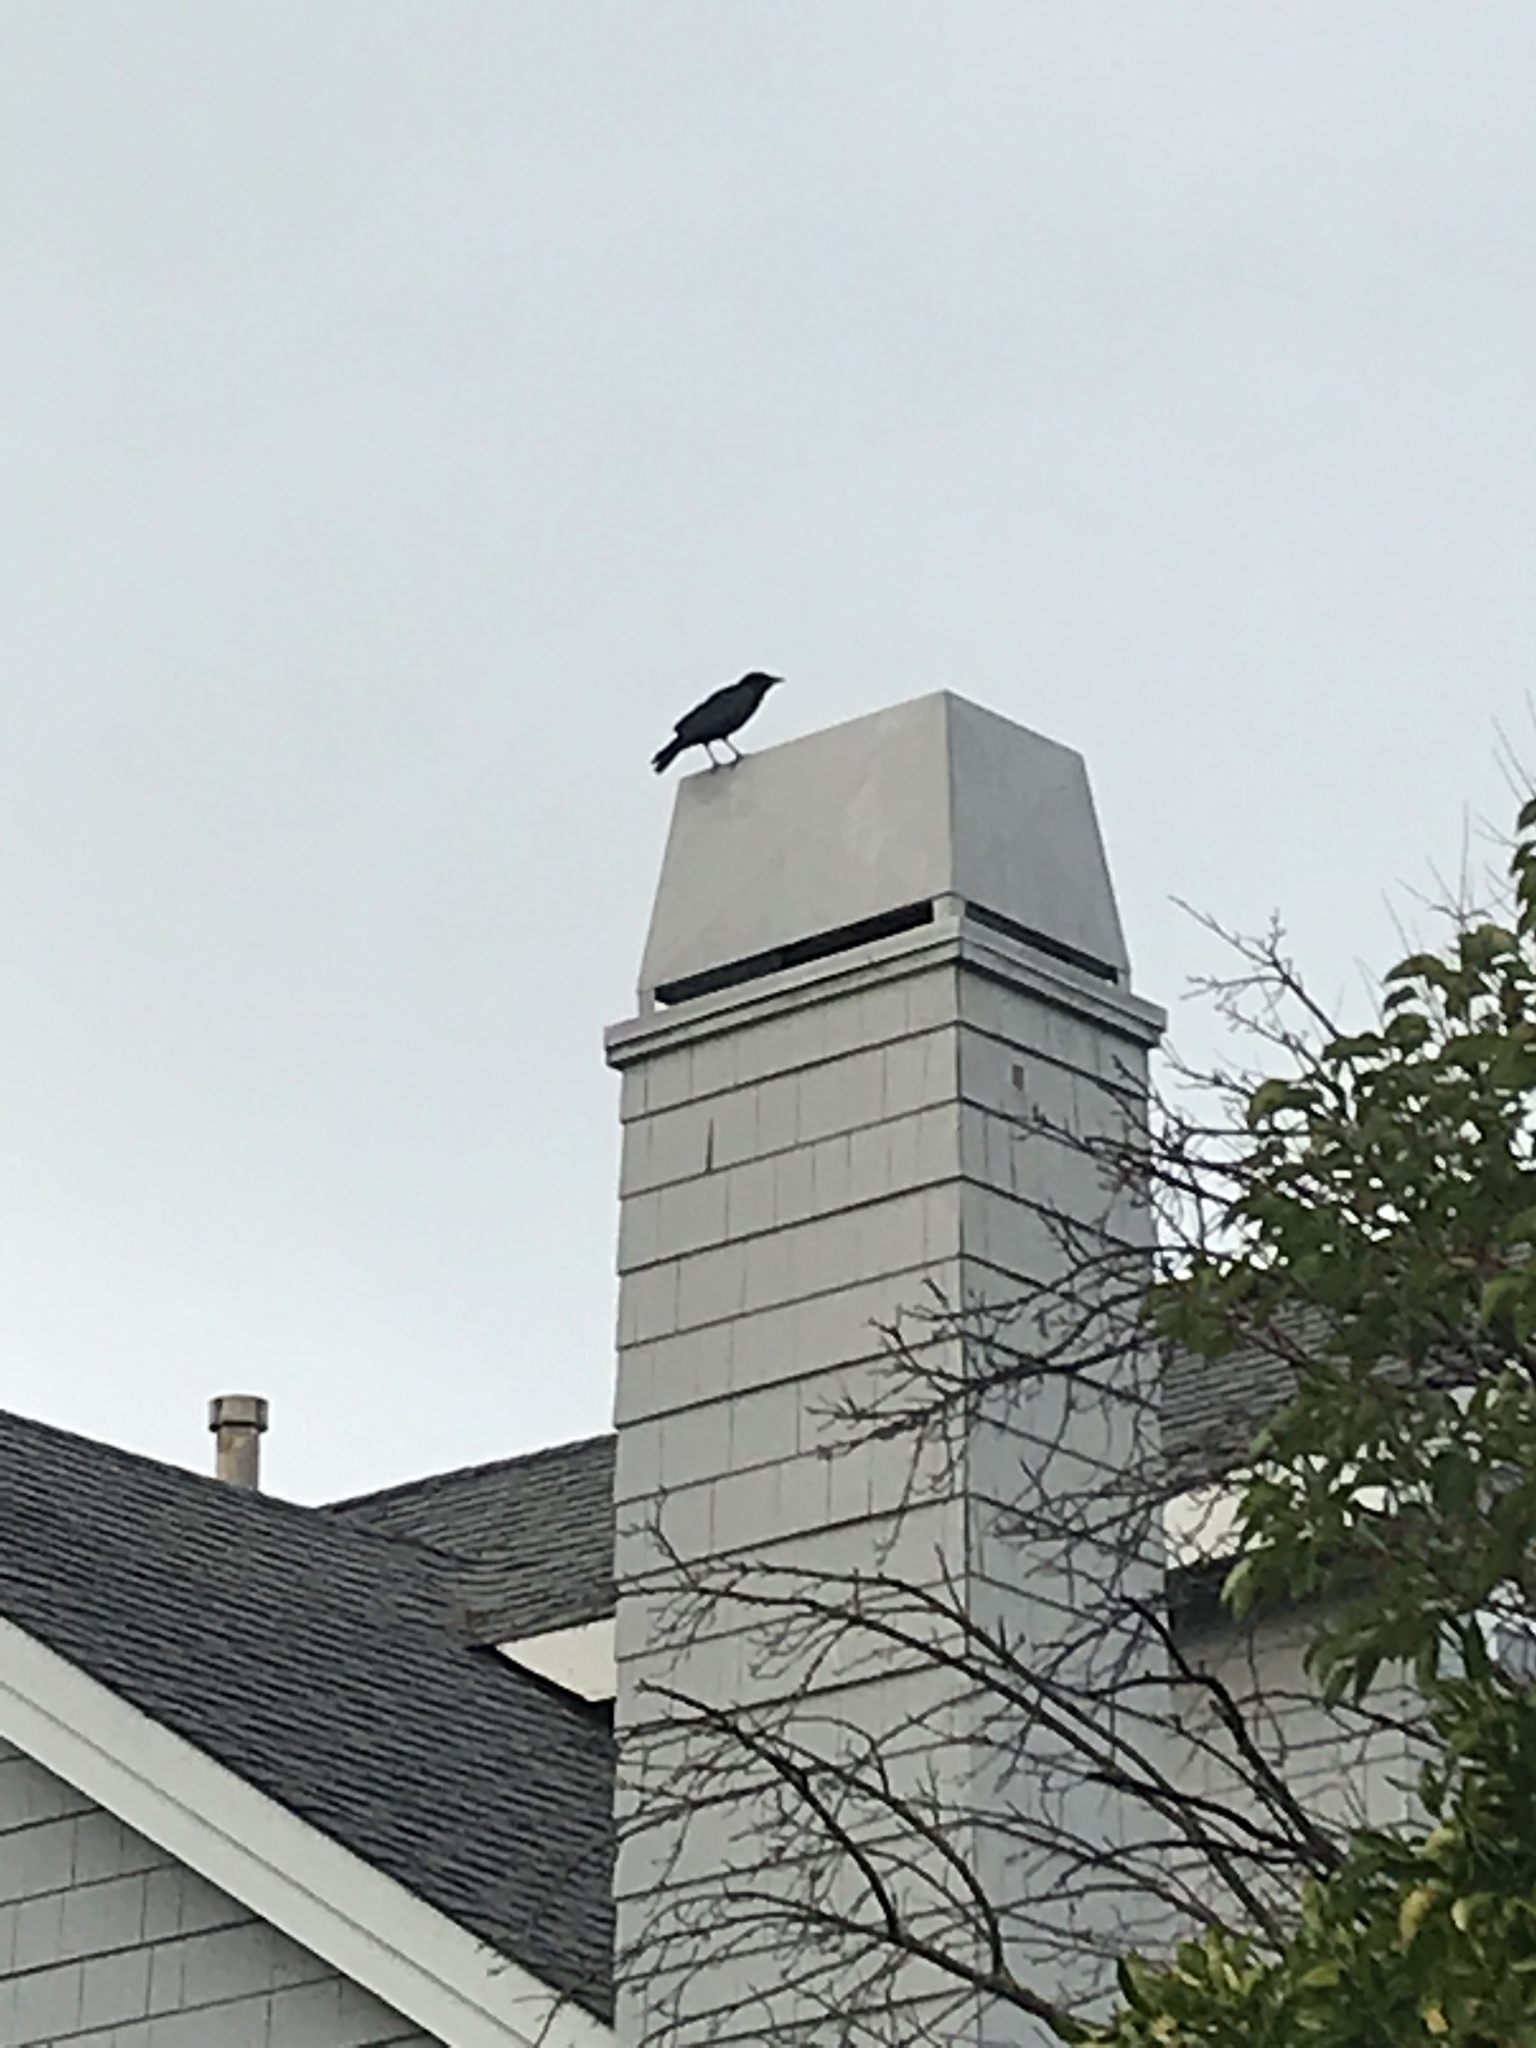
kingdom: Animalia
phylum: Chordata
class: Aves
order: Passeriformes
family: Corvidae
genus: Corvus
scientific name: Corvus brachyrhynchos
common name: American crow
